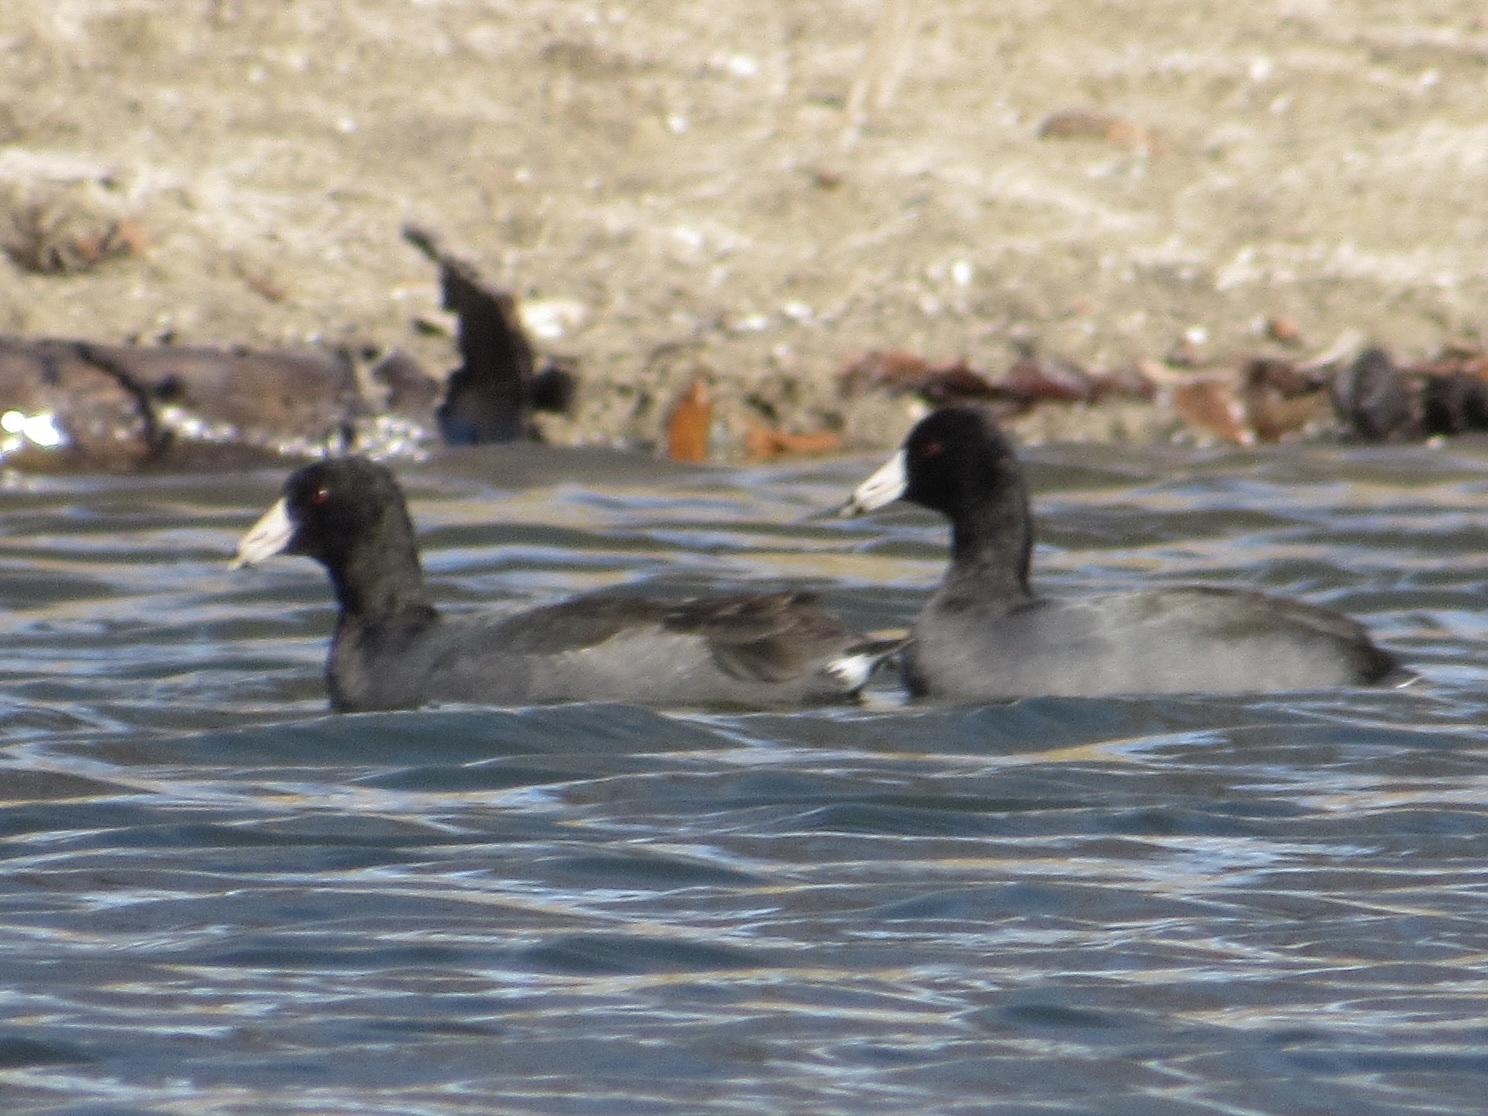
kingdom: Animalia
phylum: Chordata
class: Aves
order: Gruiformes
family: Rallidae
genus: Fulica
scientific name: Fulica americana
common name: American coot
